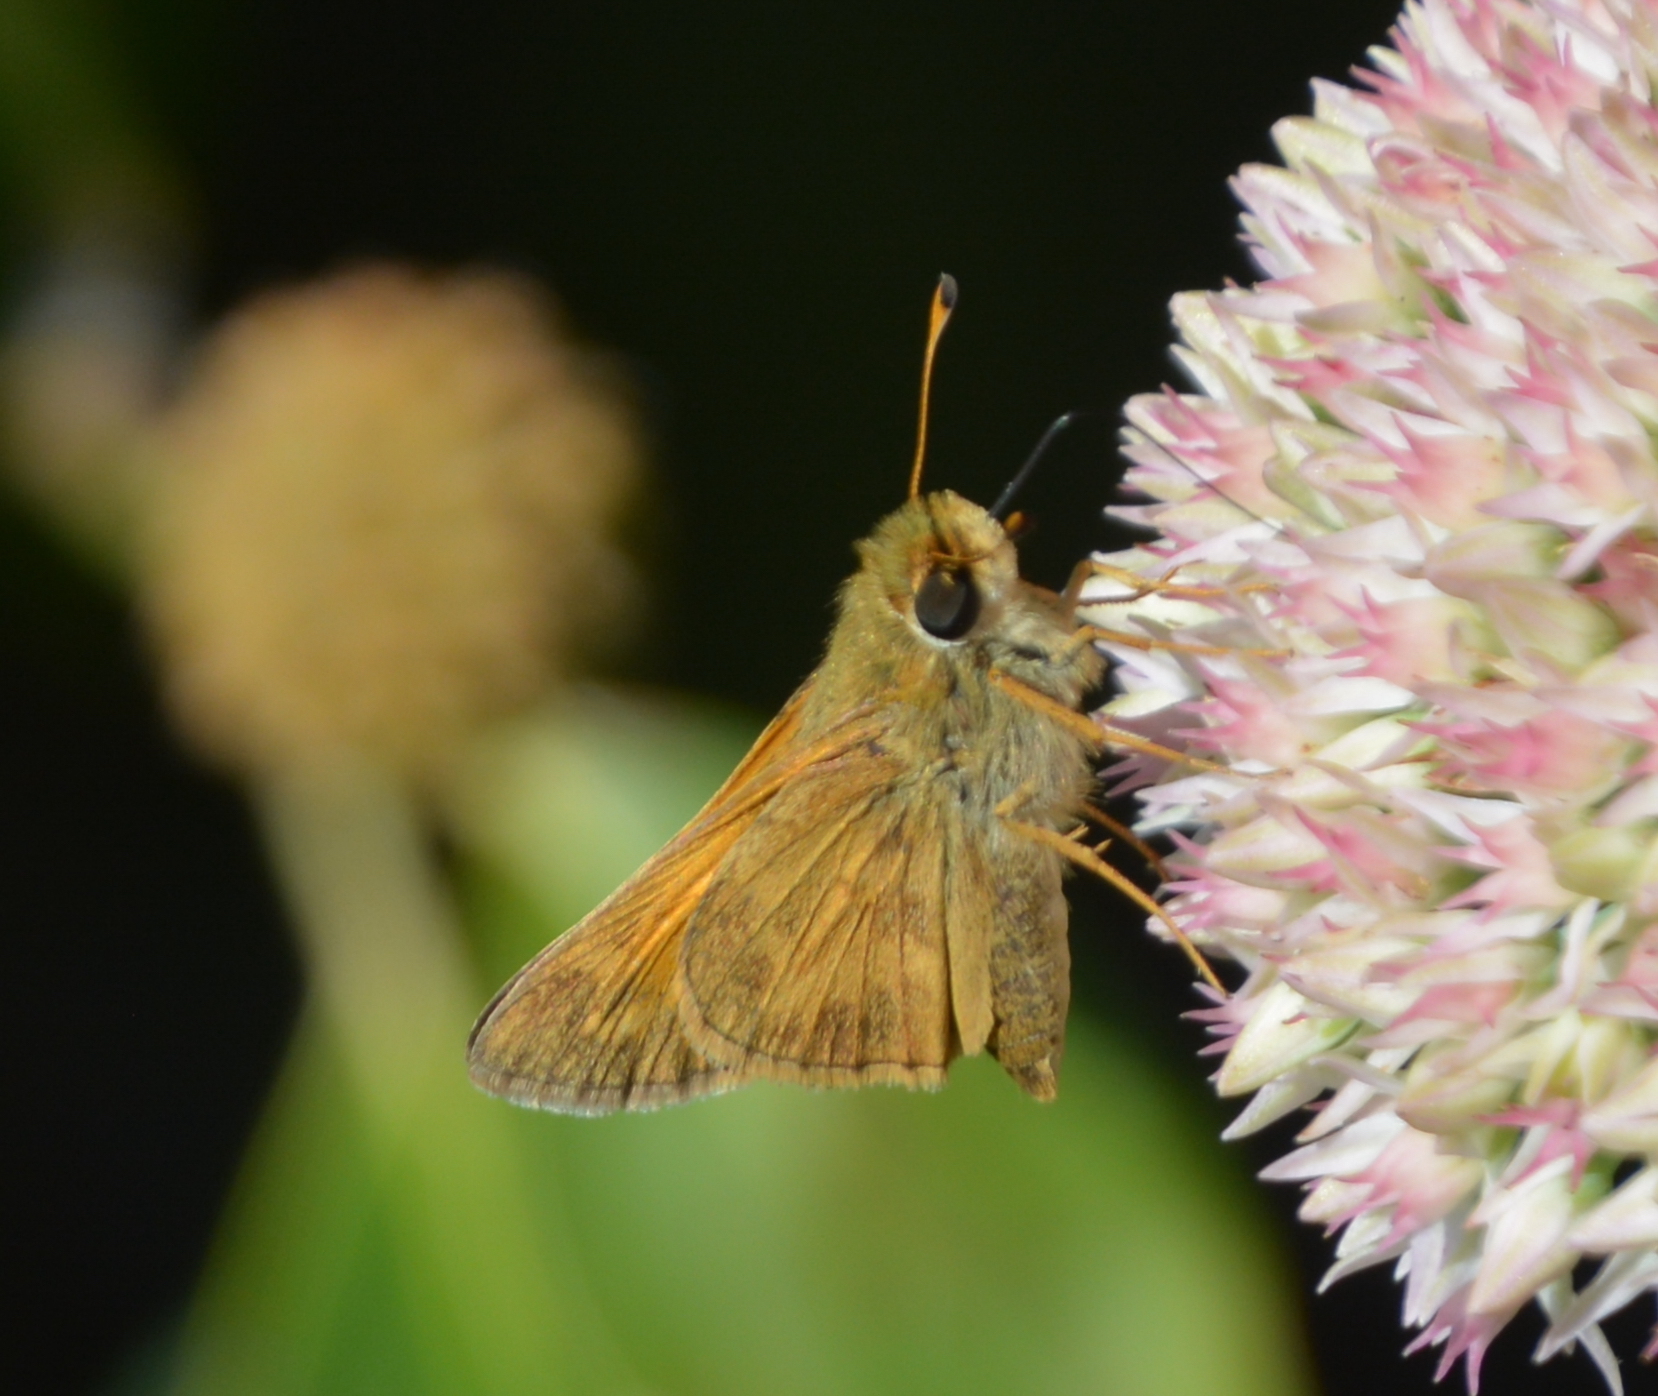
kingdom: Animalia
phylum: Arthropoda
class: Insecta
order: Lepidoptera
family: Hesperiidae
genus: Atalopedes
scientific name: Atalopedes
